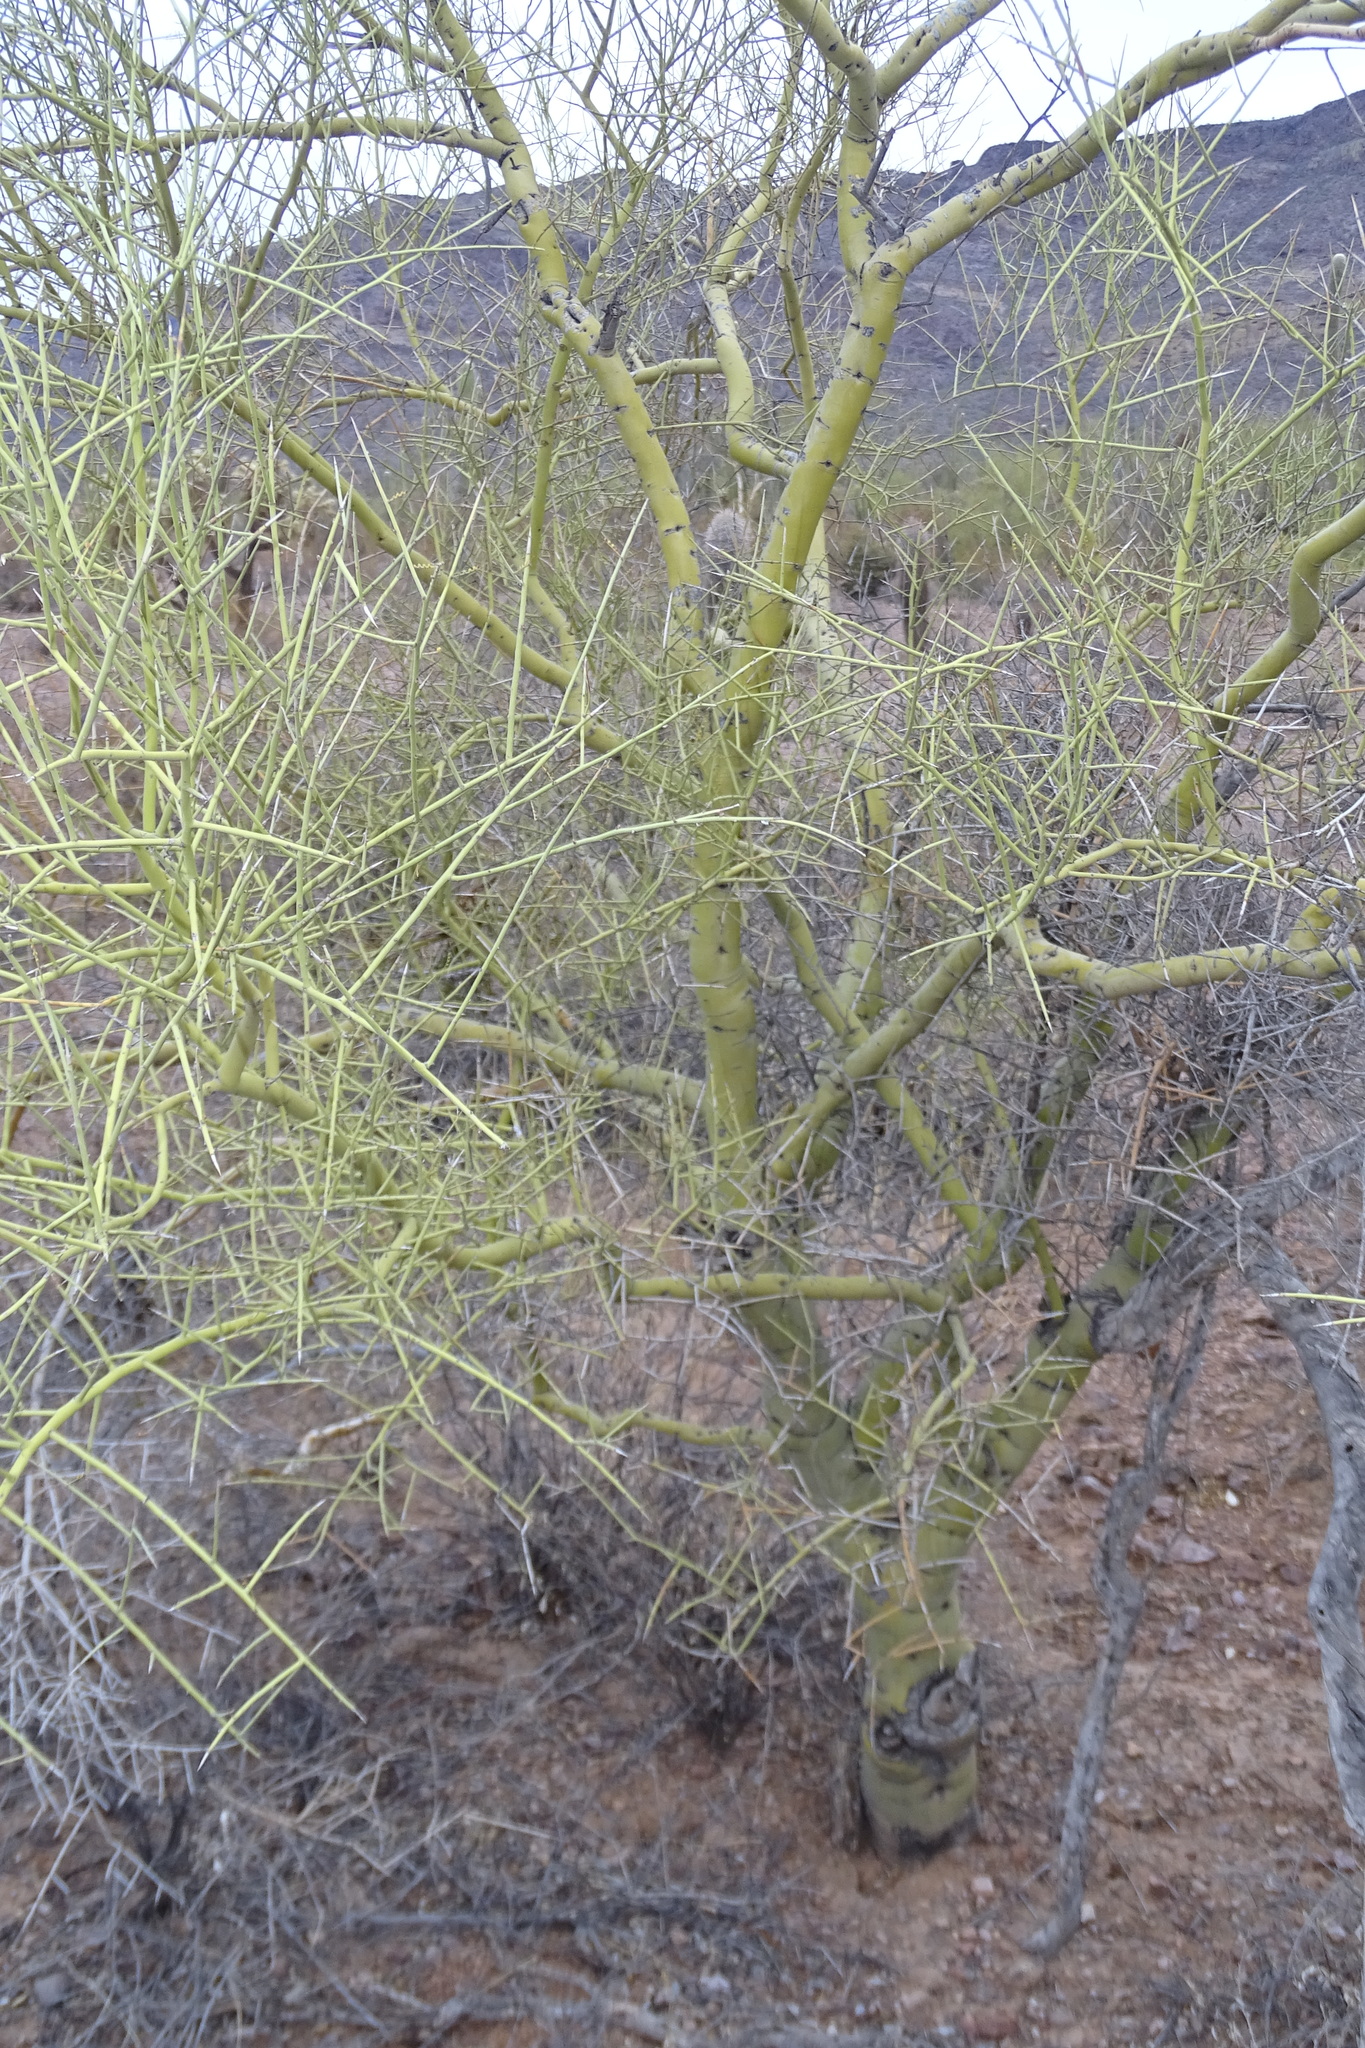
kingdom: Plantae
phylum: Tracheophyta
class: Magnoliopsida
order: Fabales
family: Fabaceae
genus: Parkinsonia
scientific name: Parkinsonia microphylla
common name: Yellow paloverde
